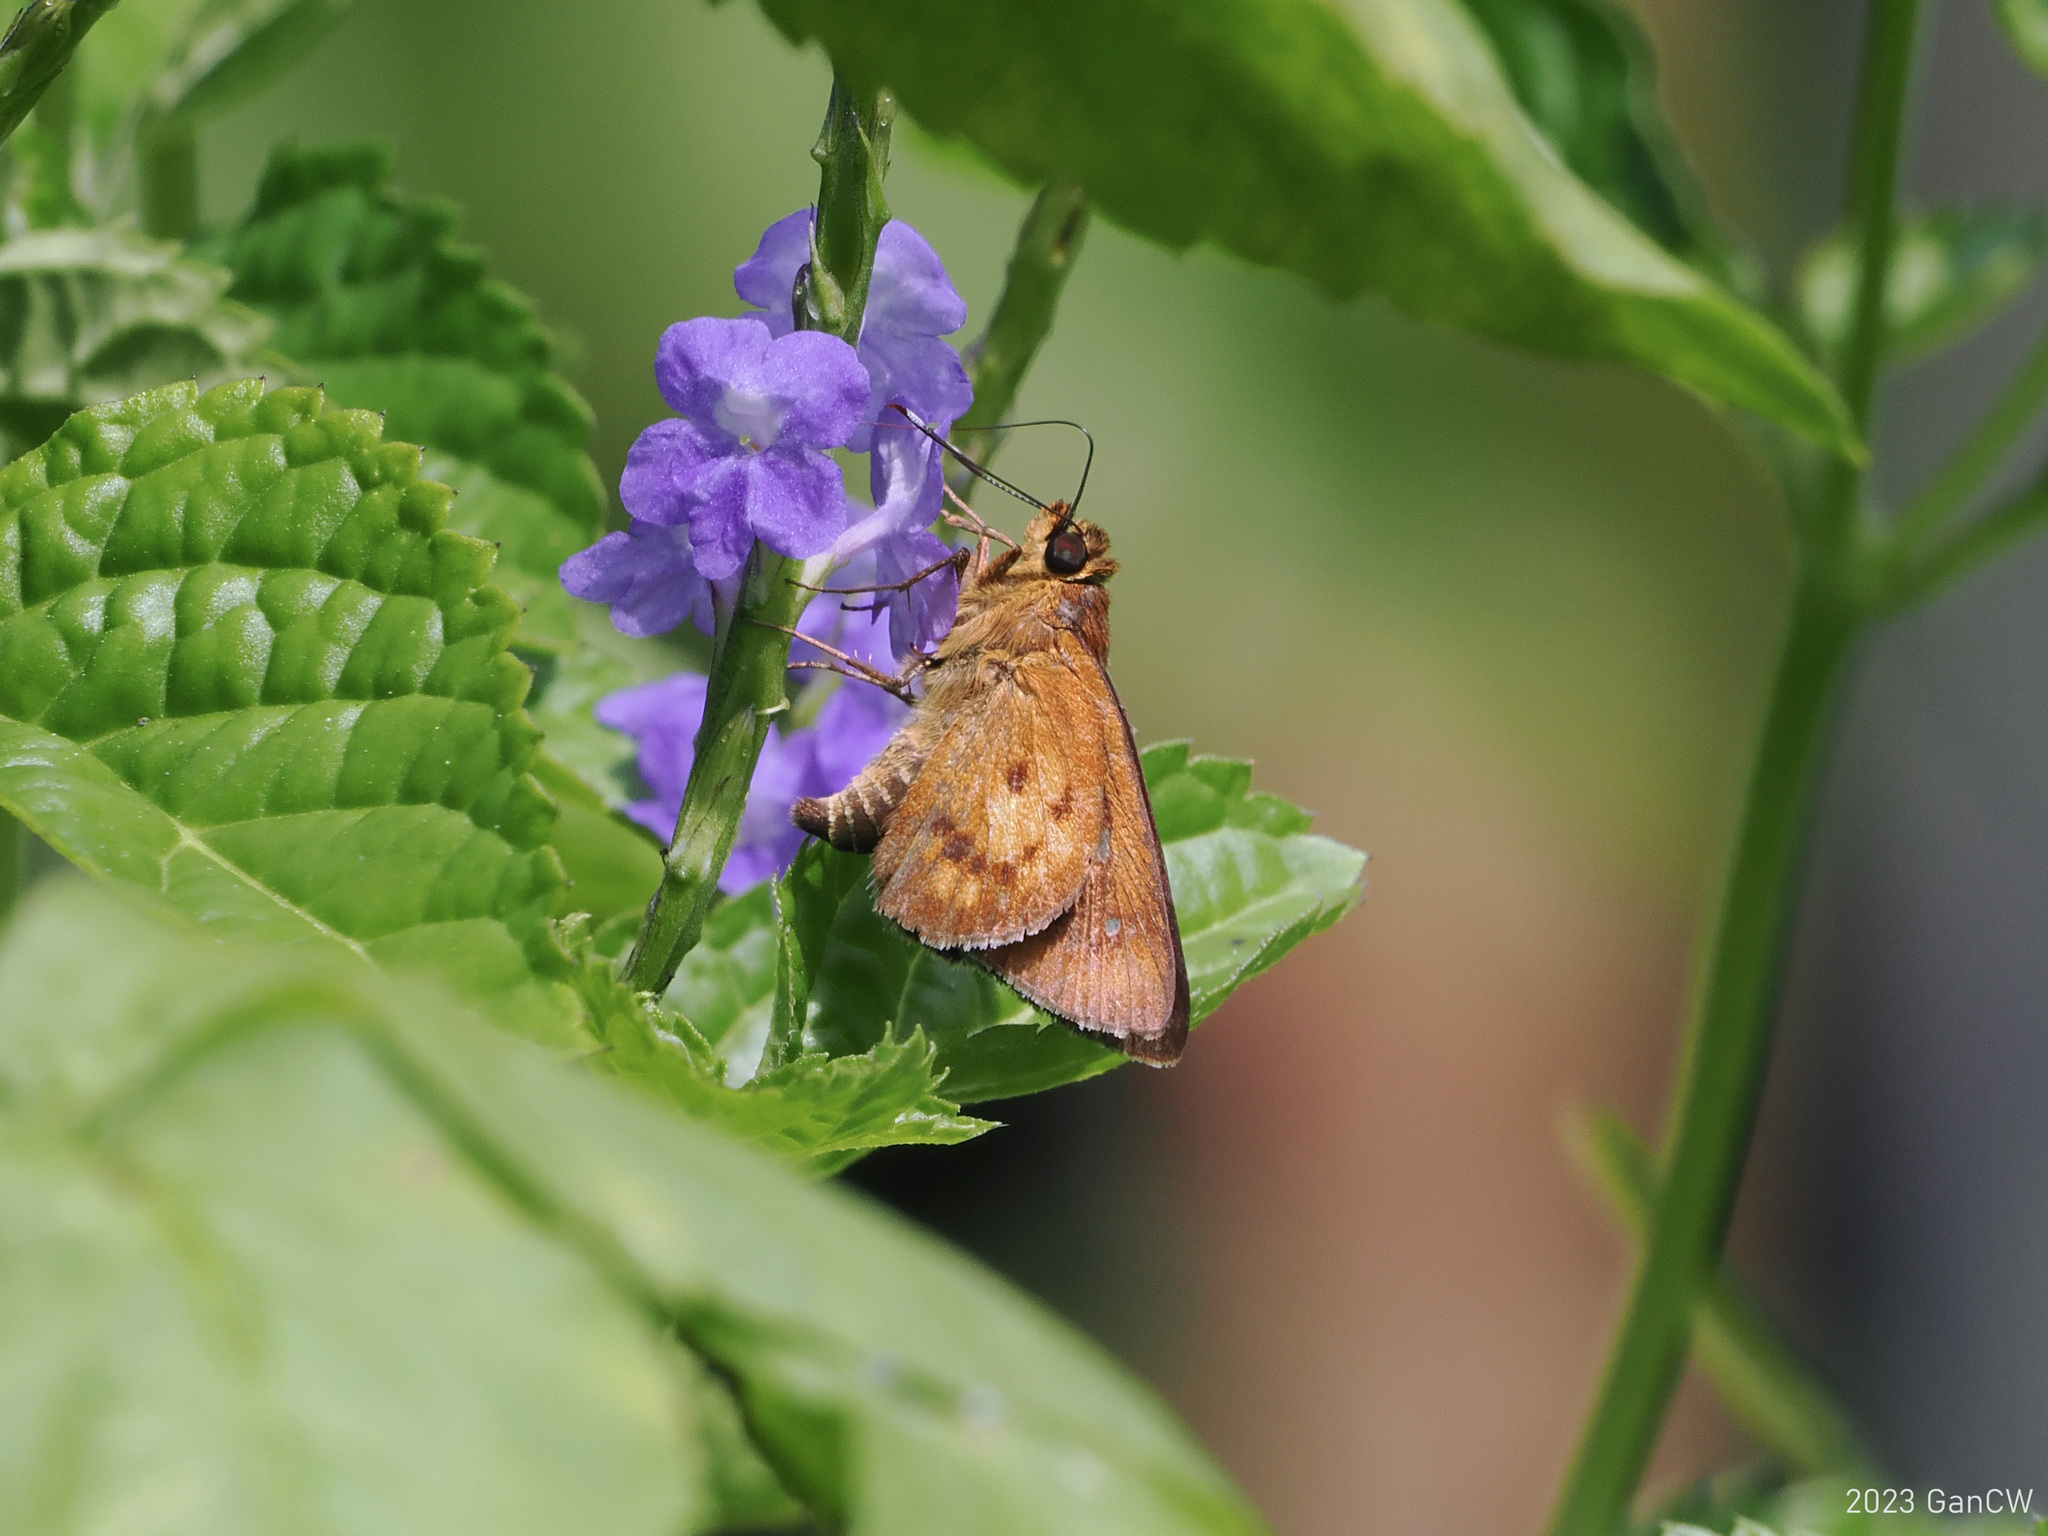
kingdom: Animalia
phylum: Arthropoda
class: Insecta
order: Lepidoptera
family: Hesperiidae
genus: Zographetus
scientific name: Zographetus doxus
